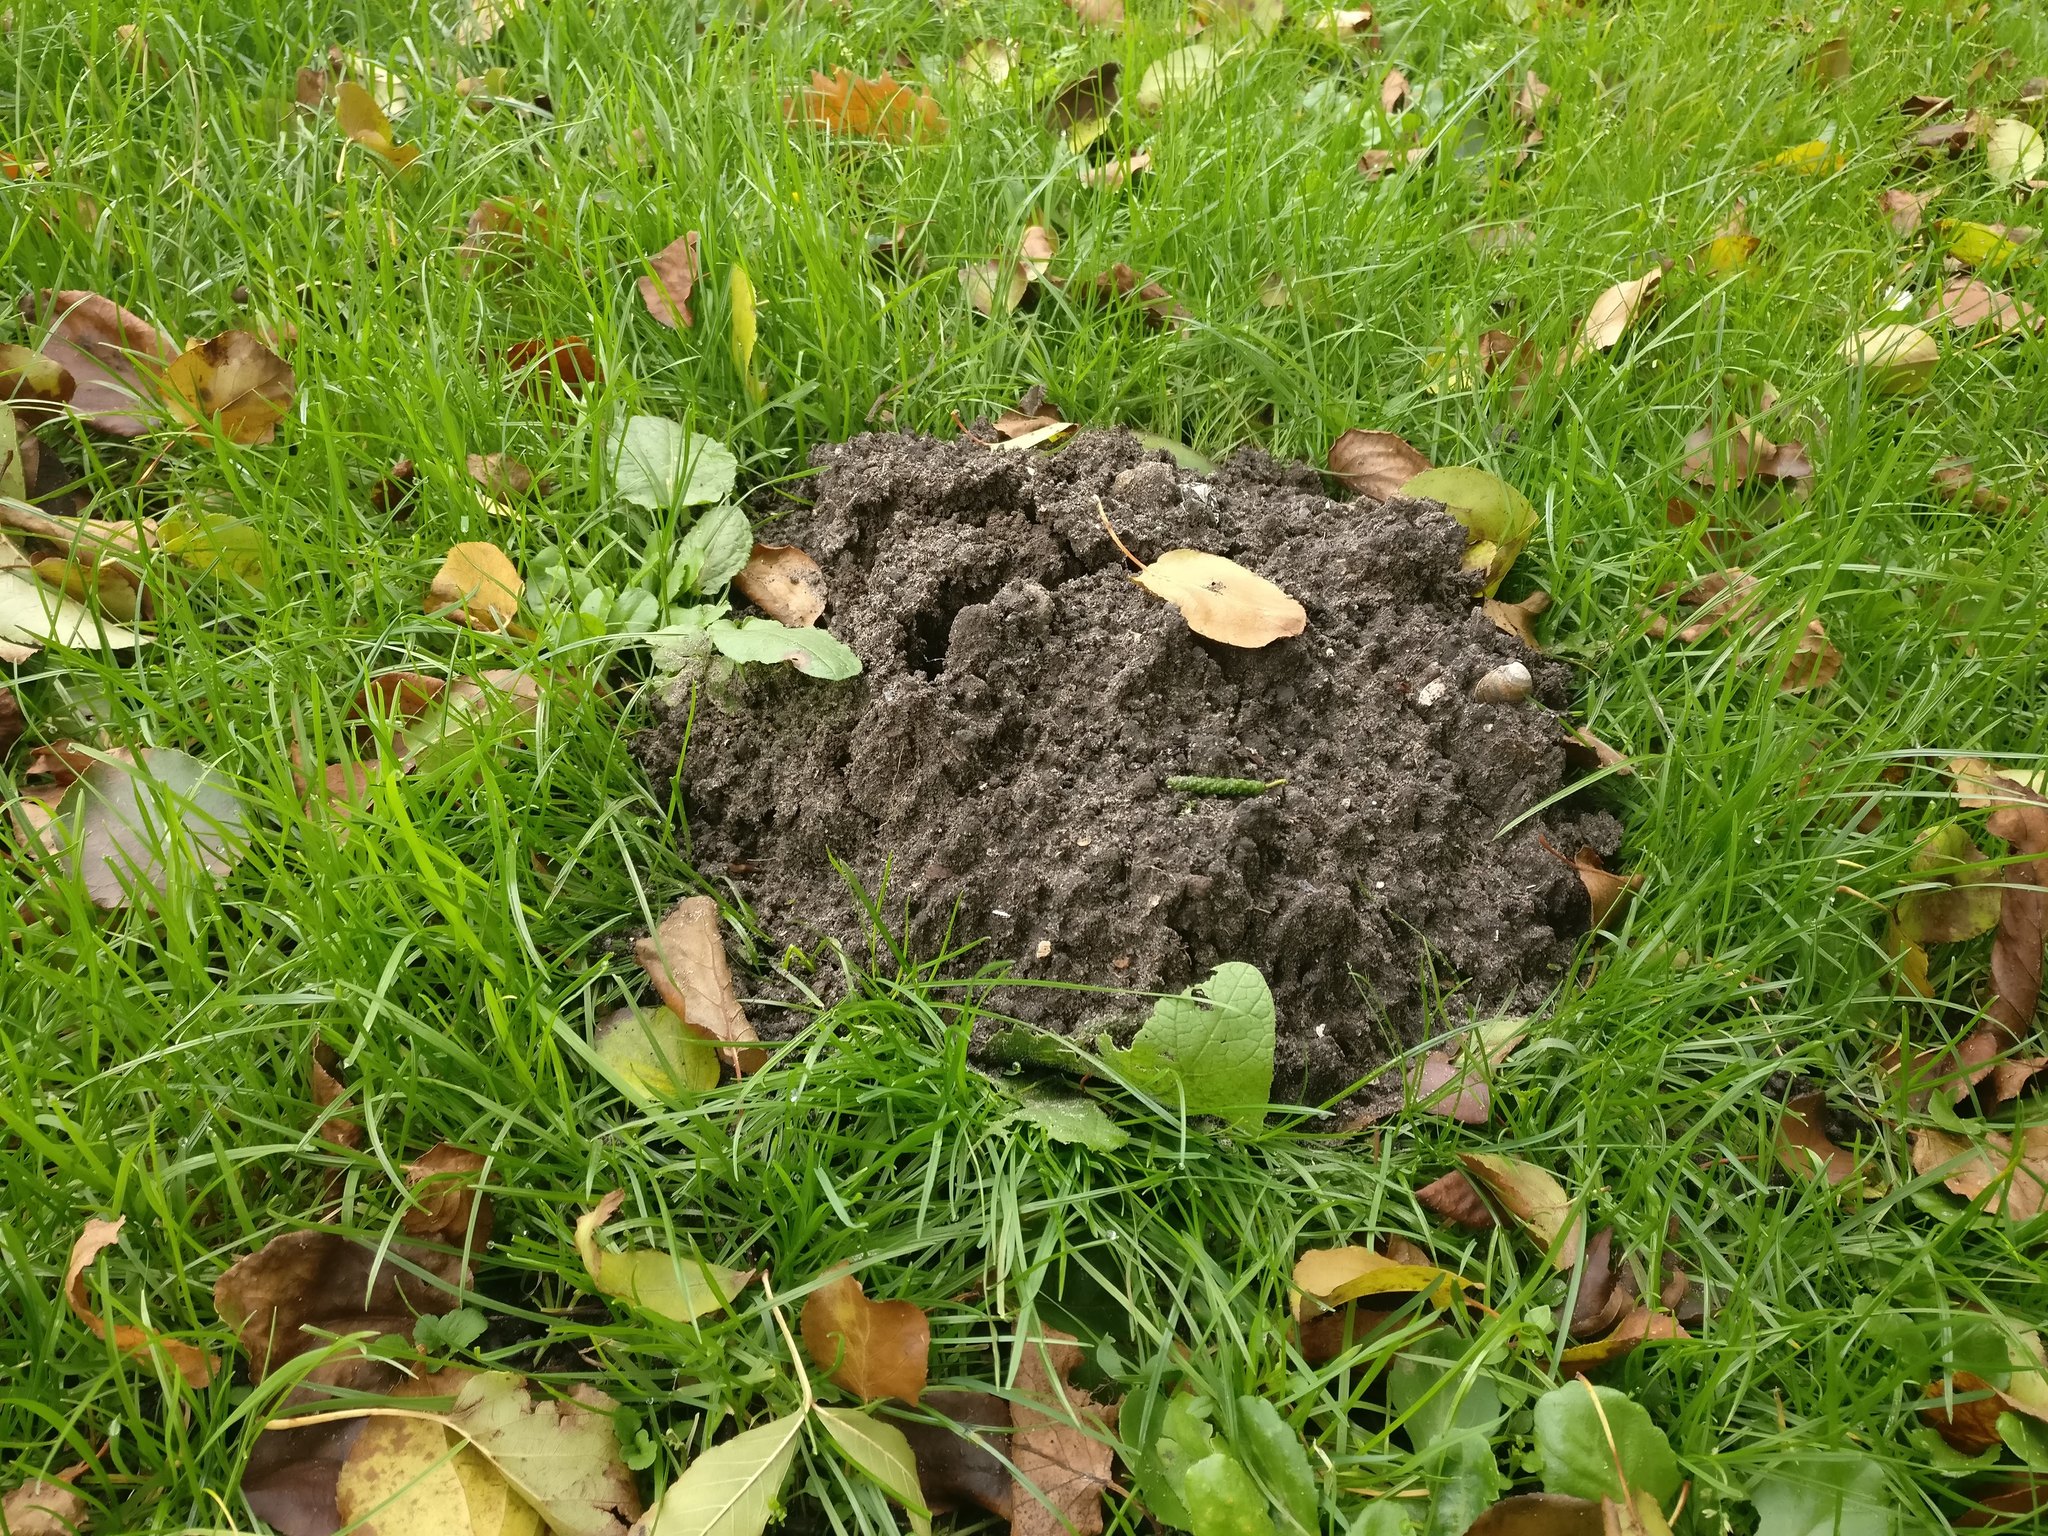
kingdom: Animalia
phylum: Chordata
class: Mammalia
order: Soricomorpha
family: Talpidae
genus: Talpa
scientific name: Talpa europaea
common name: European mole
